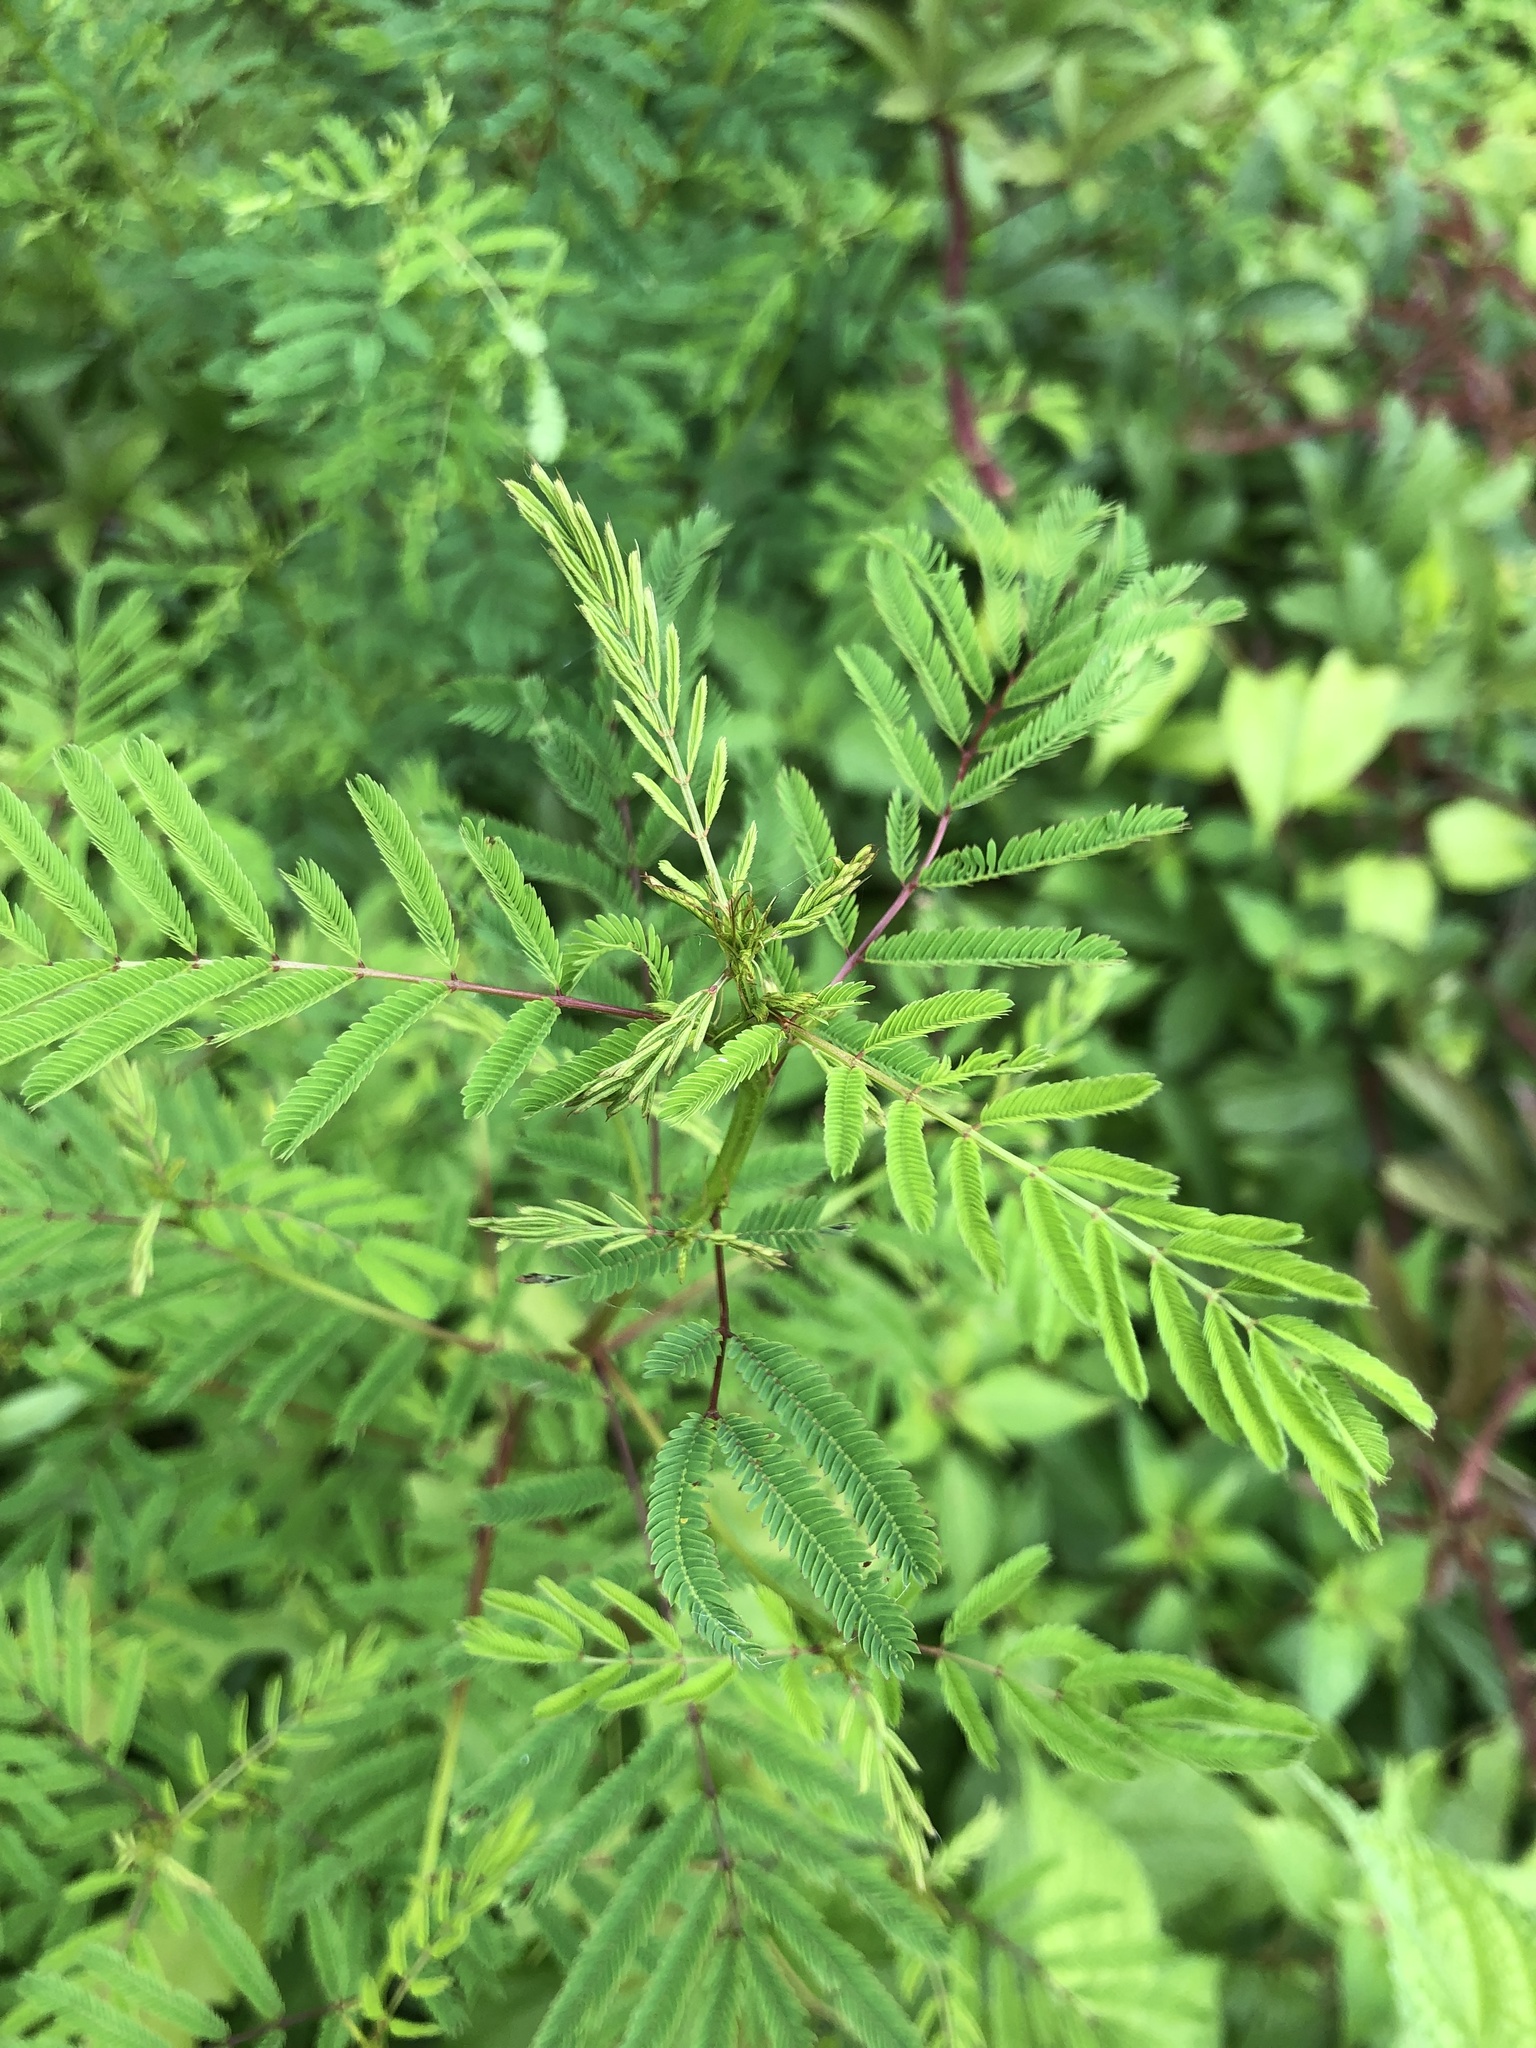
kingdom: Plantae
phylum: Tracheophyta
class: Magnoliopsida
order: Fabales
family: Fabaceae
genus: Desmanthus
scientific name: Desmanthus illinoensis
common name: Illinois bundle-flower
